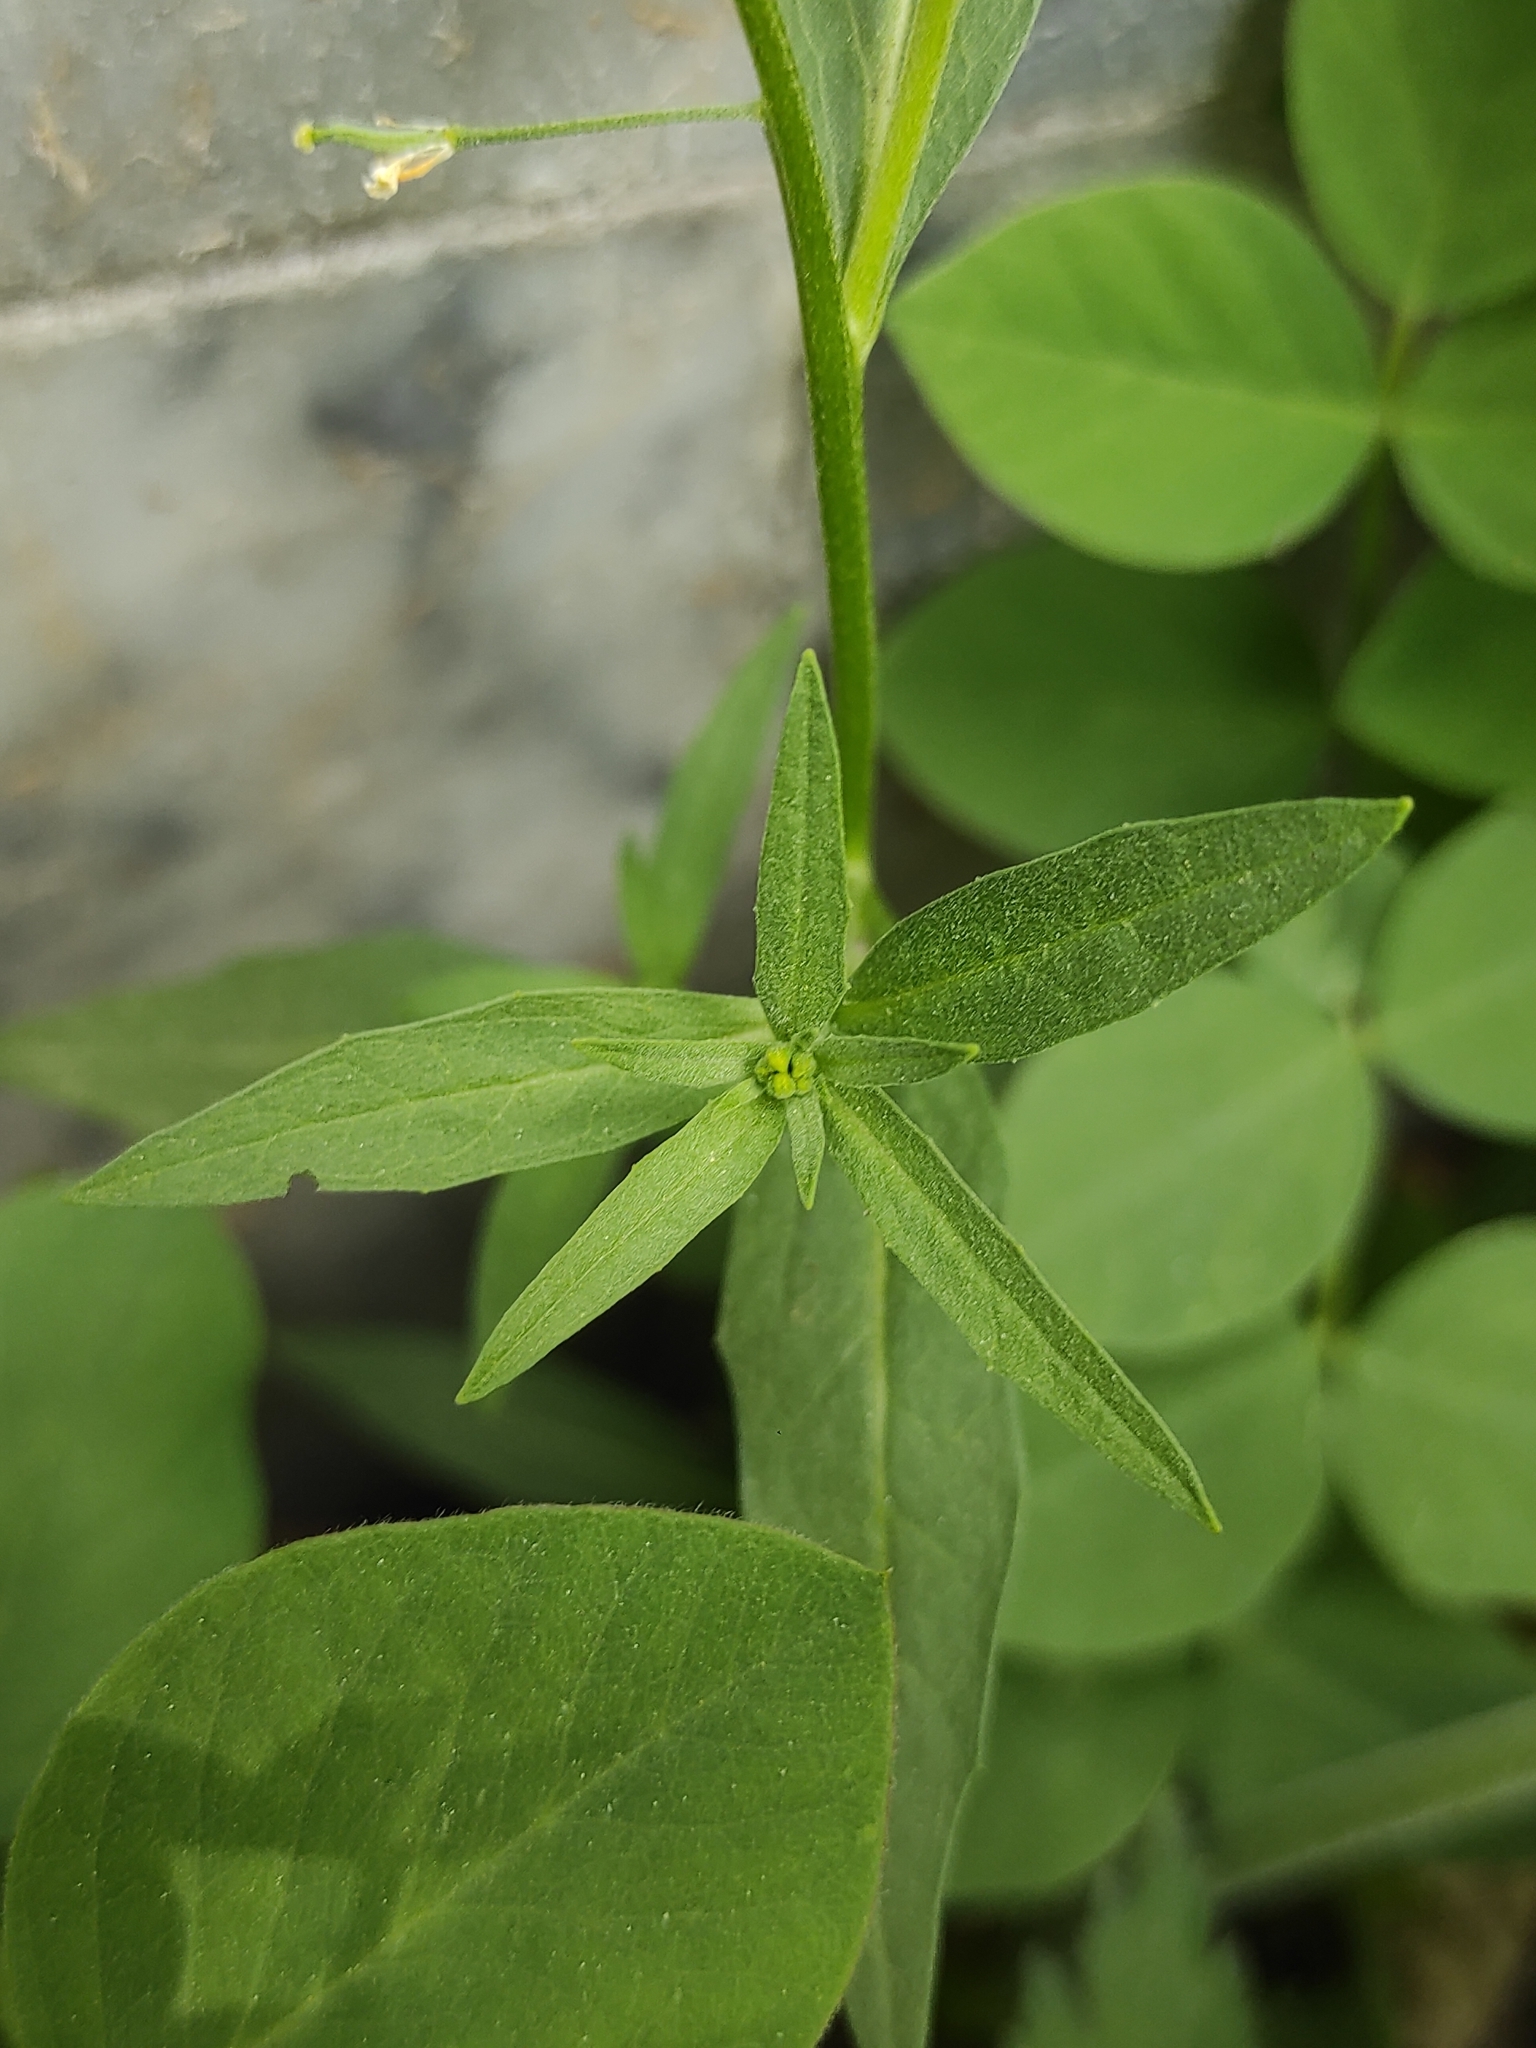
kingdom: Plantae
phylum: Tracheophyta
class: Magnoliopsida
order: Brassicales
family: Brassicaceae
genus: Erysimum
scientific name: Erysimum cheiranthoides
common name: Treacle mustard
